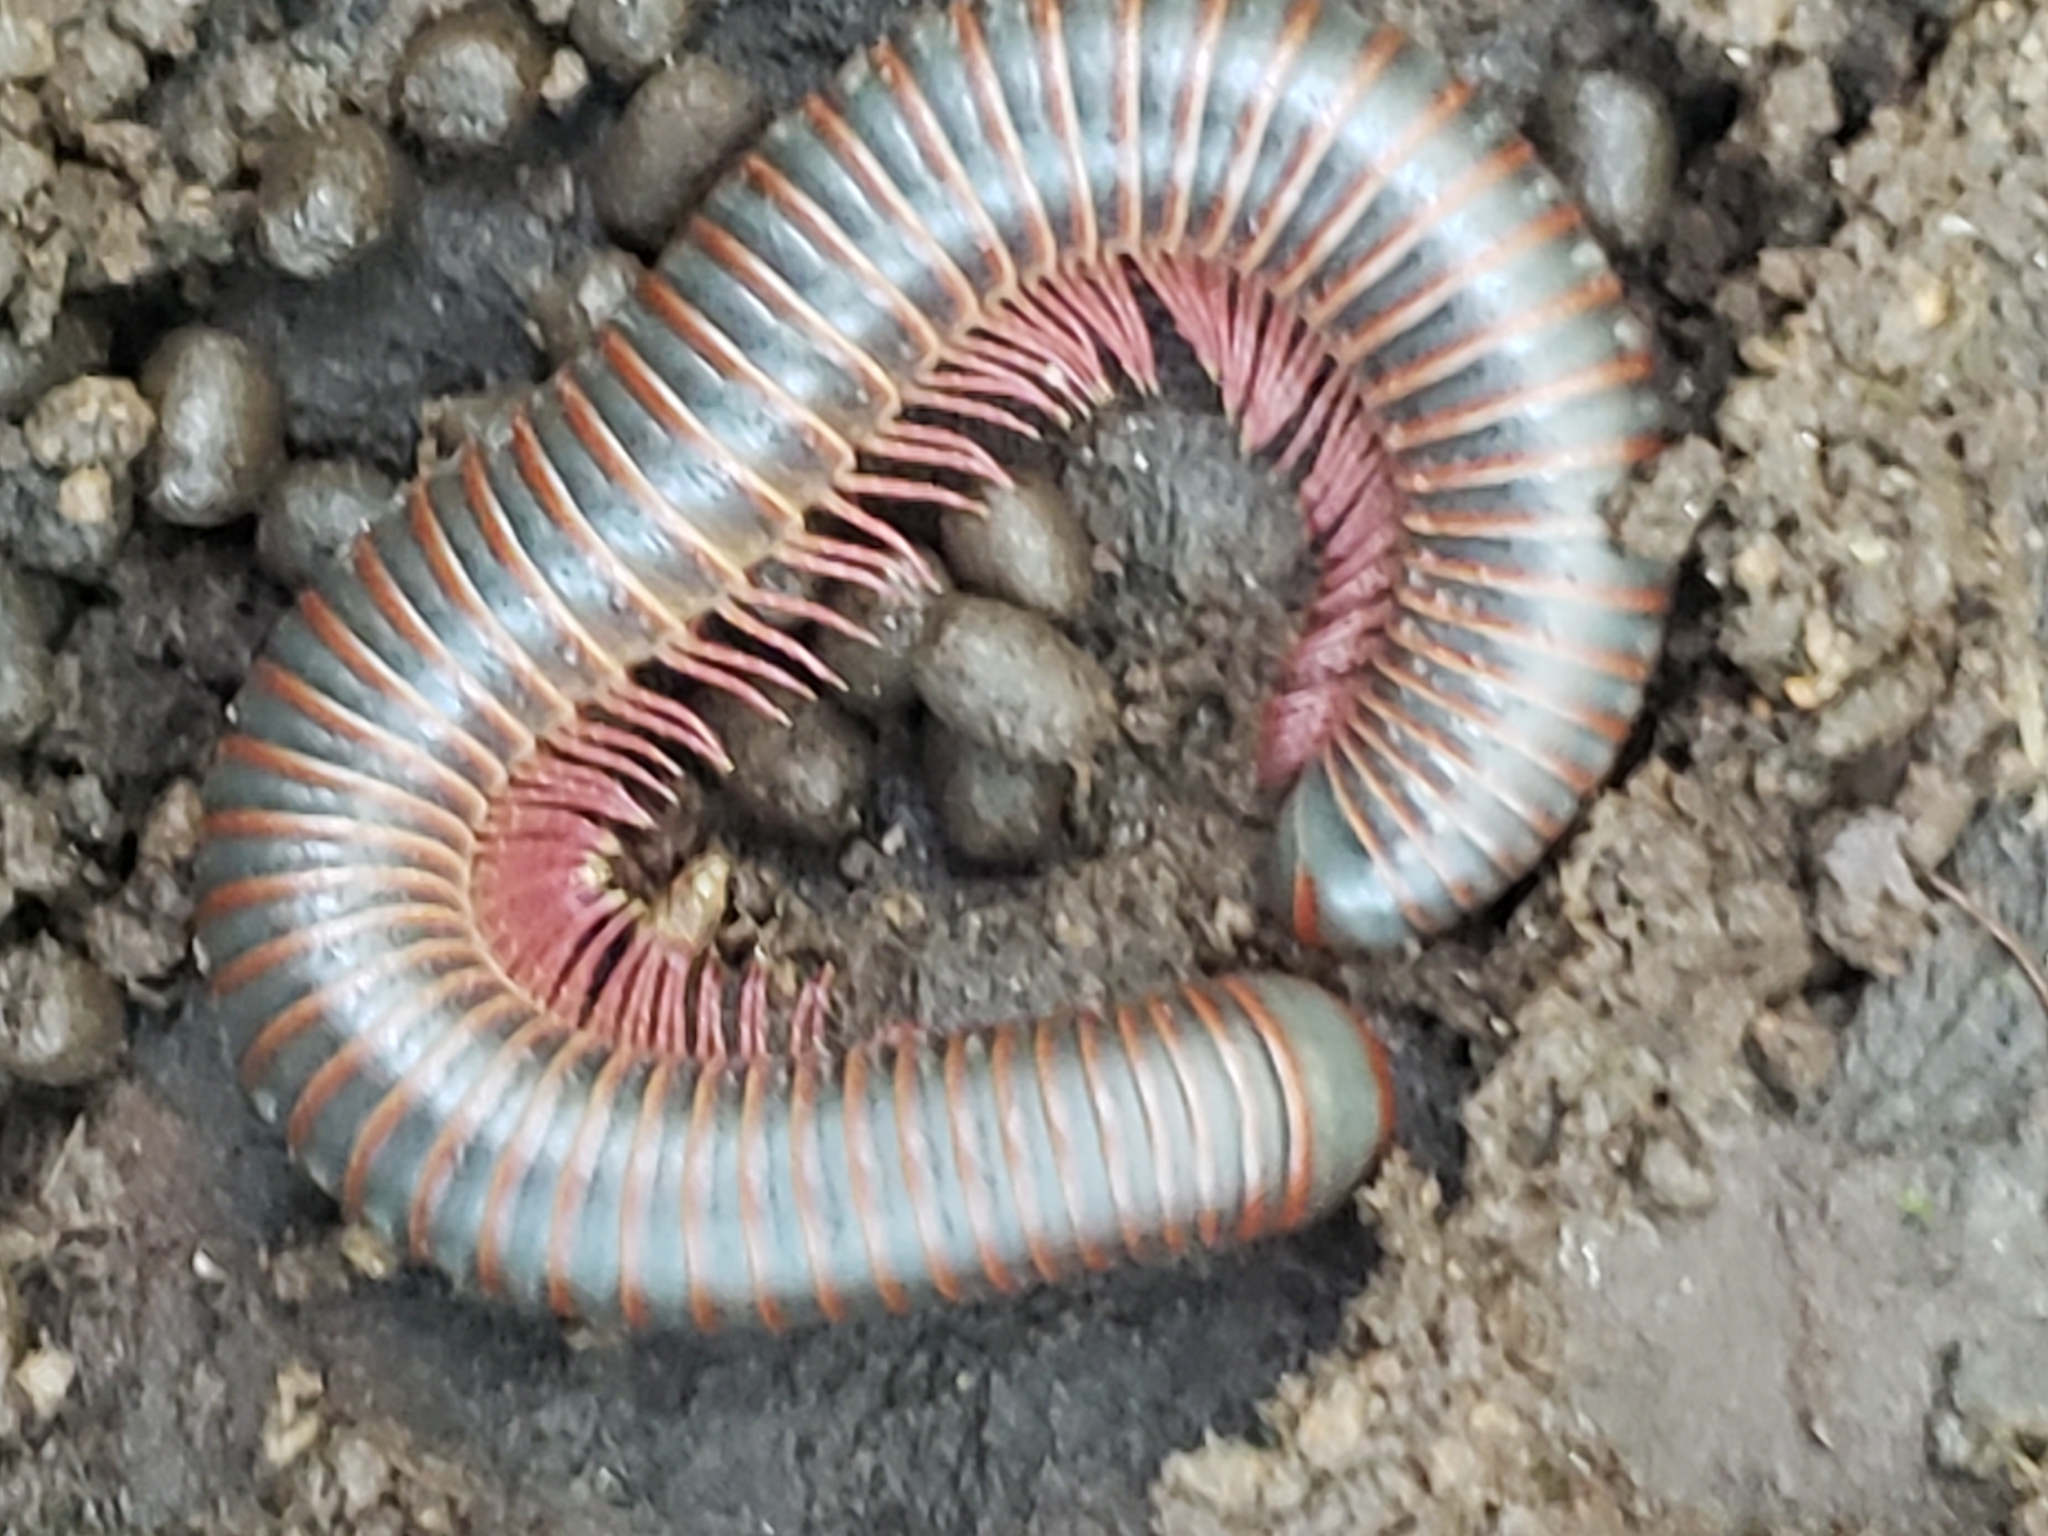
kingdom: Animalia
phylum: Arthropoda
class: Diplopoda
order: Spirobolida
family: Spirobolidae
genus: Narceus
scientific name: Narceus
